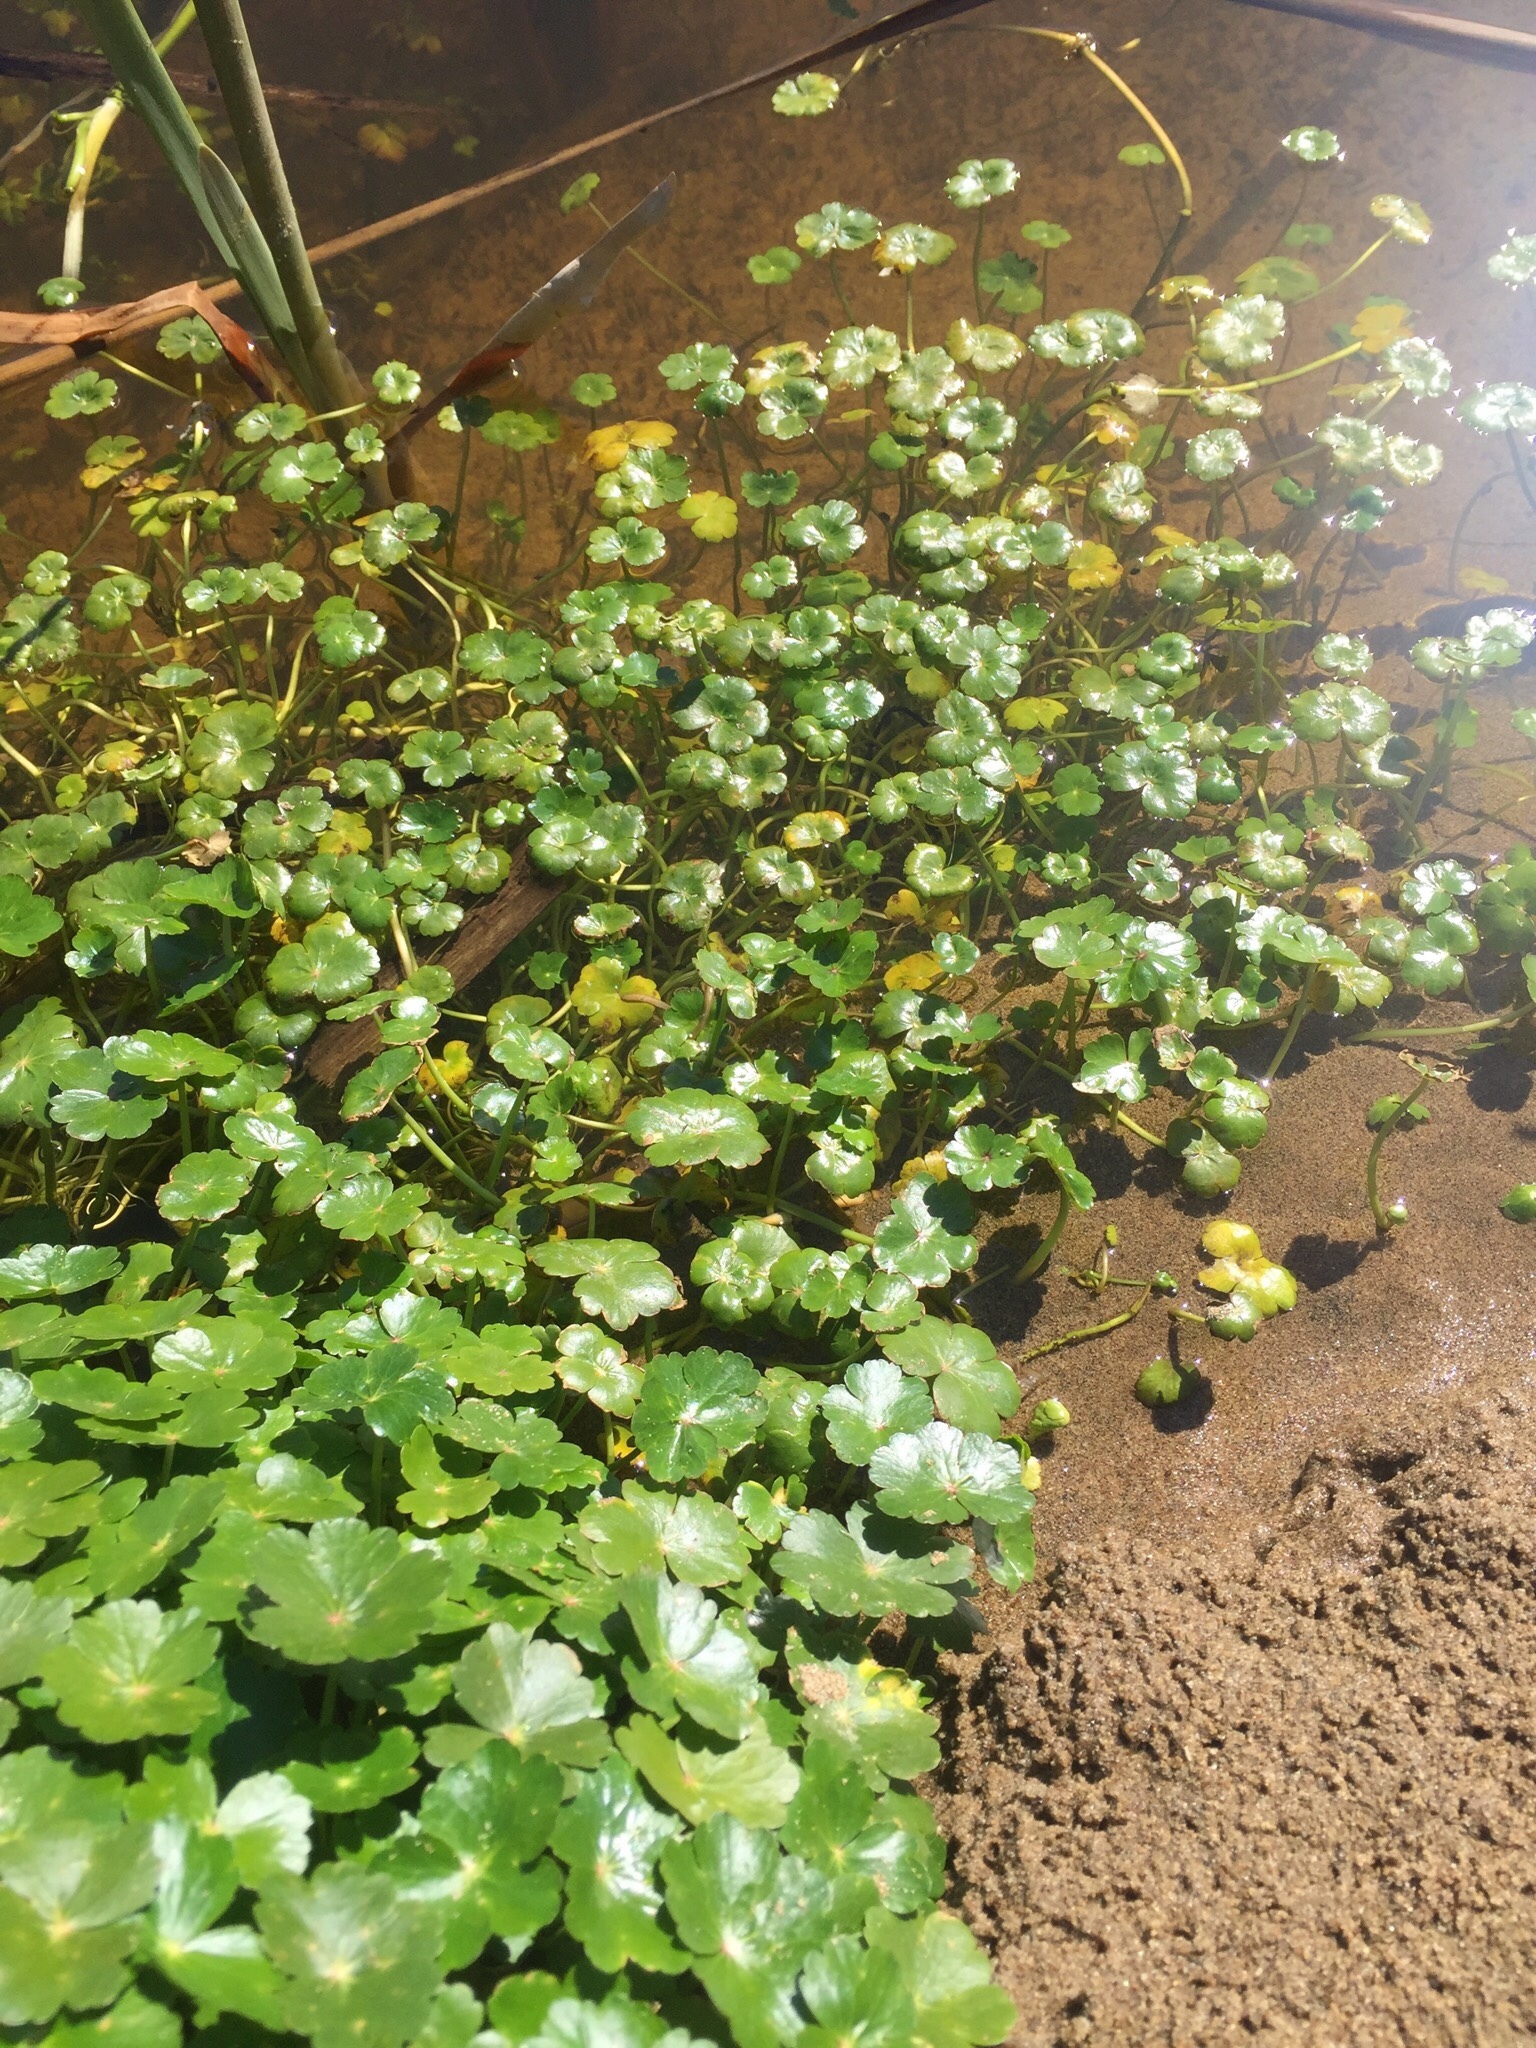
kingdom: Plantae
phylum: Tracheophyta
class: Magnoliopsida
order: Apiales
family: Araliaceae
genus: Hydrocotyle
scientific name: Hydrocotyle ranunculoides
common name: Floating pennywort
